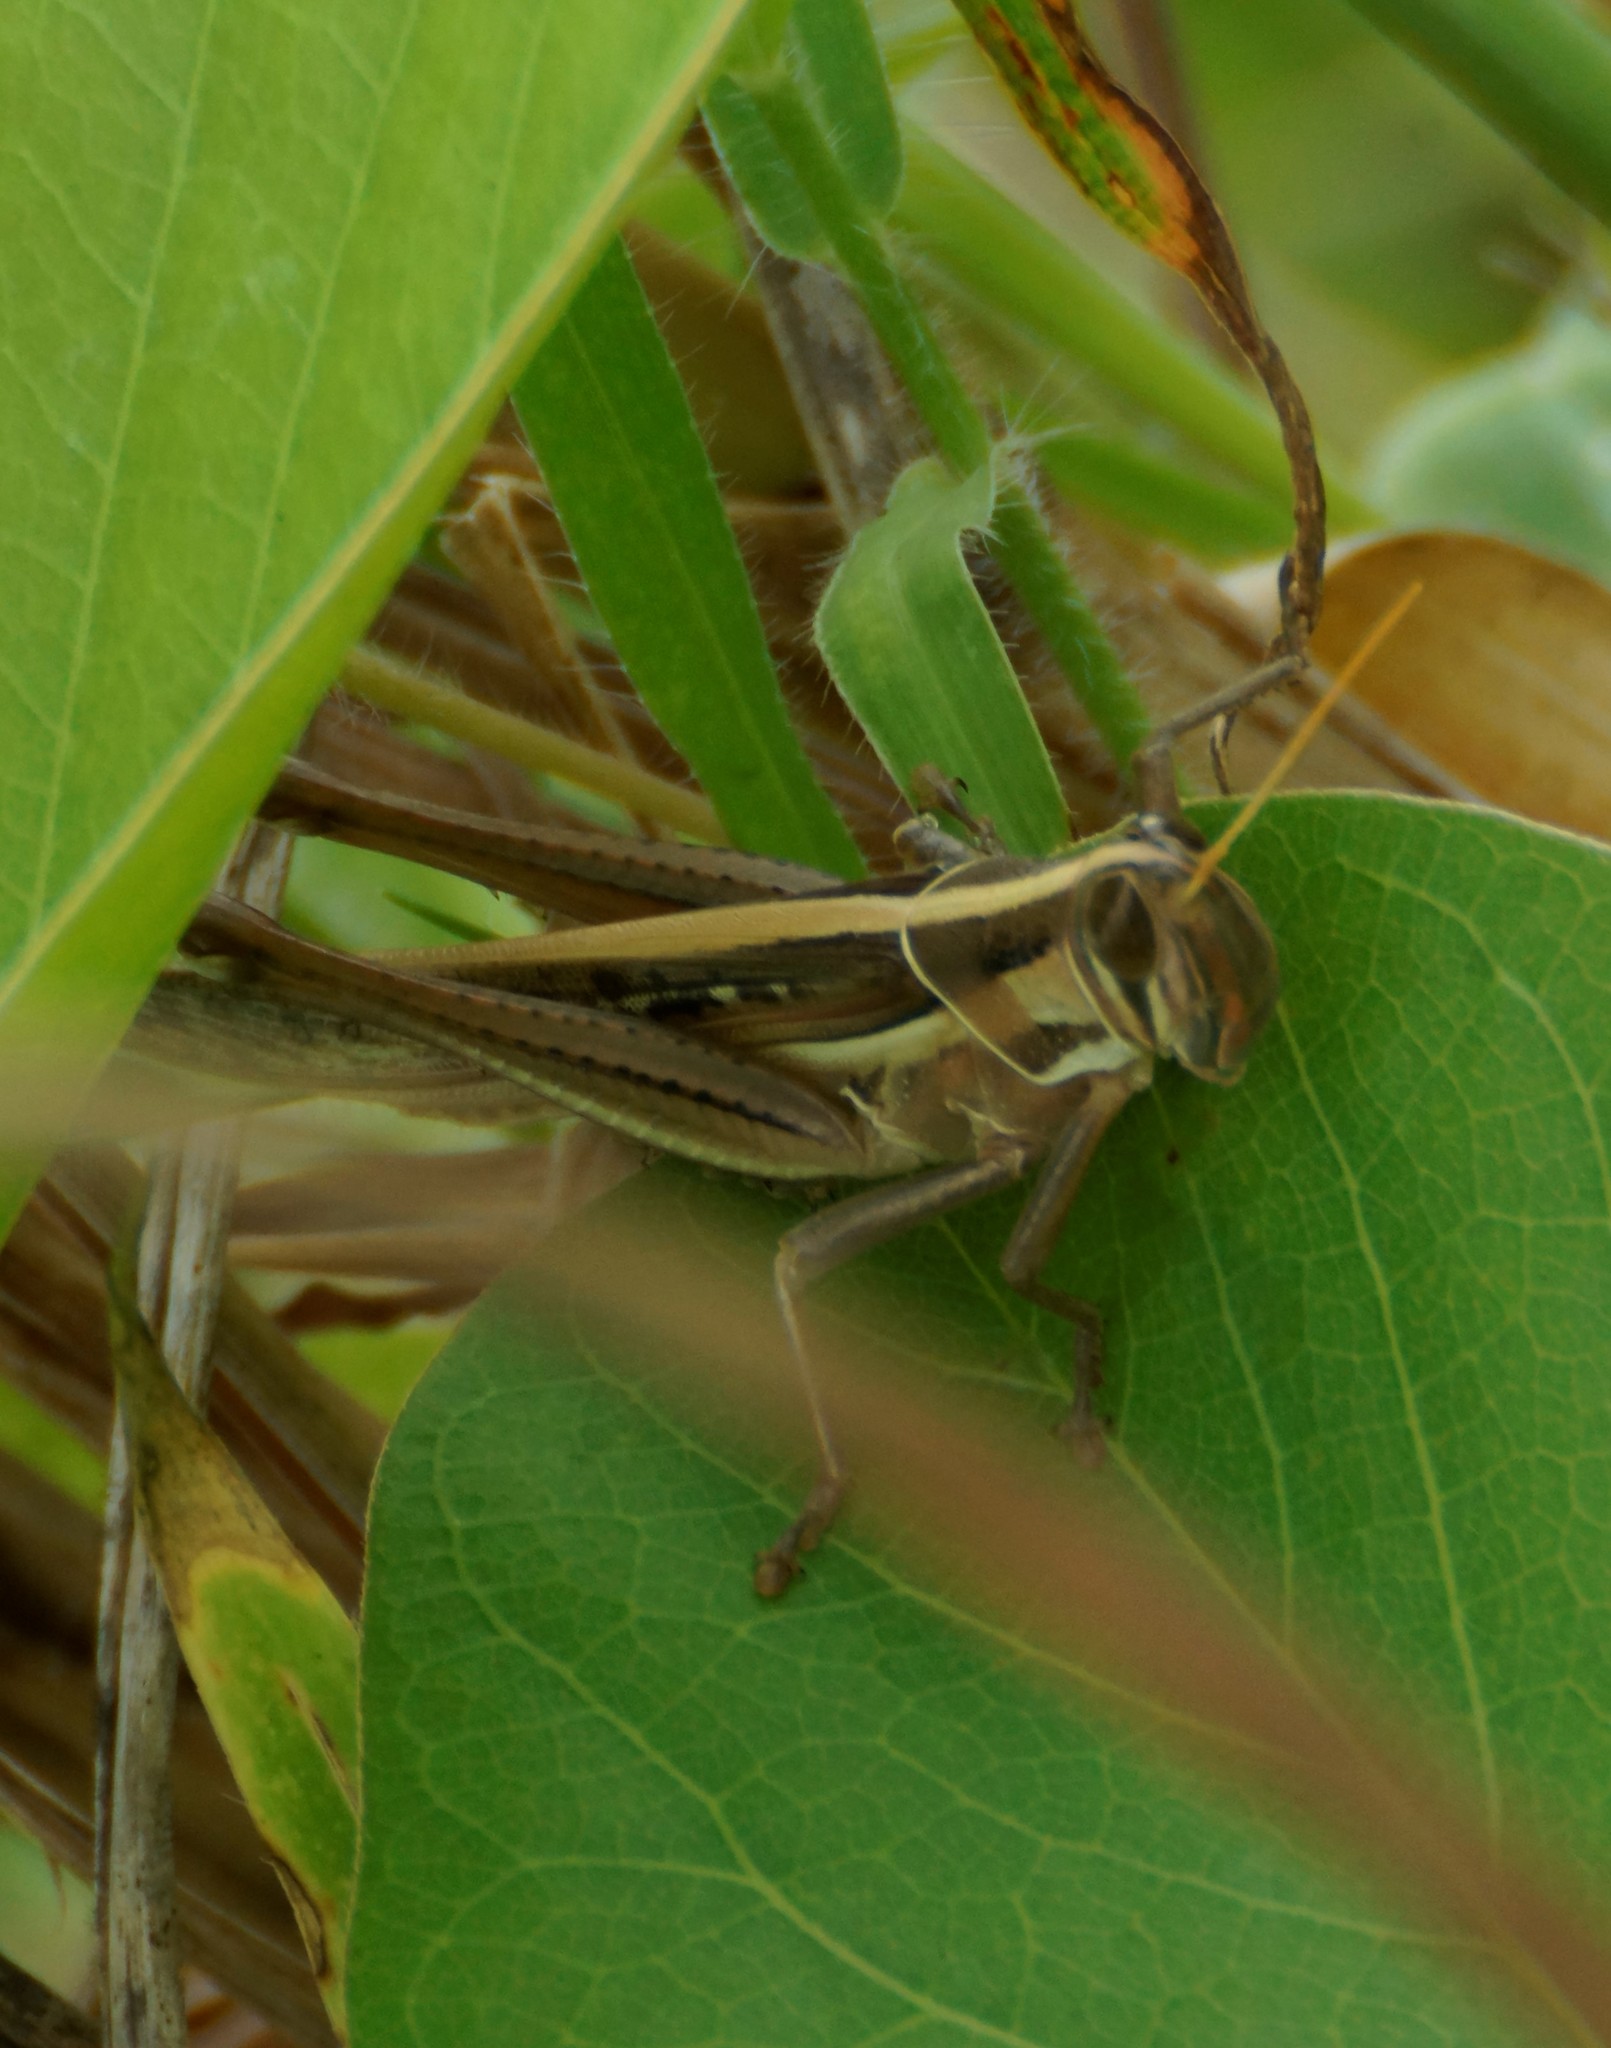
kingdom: Animalia
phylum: Arthropoda
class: Insecta
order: Orthoptera
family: Acrididae
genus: Austracris
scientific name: Austracris guttulosa
